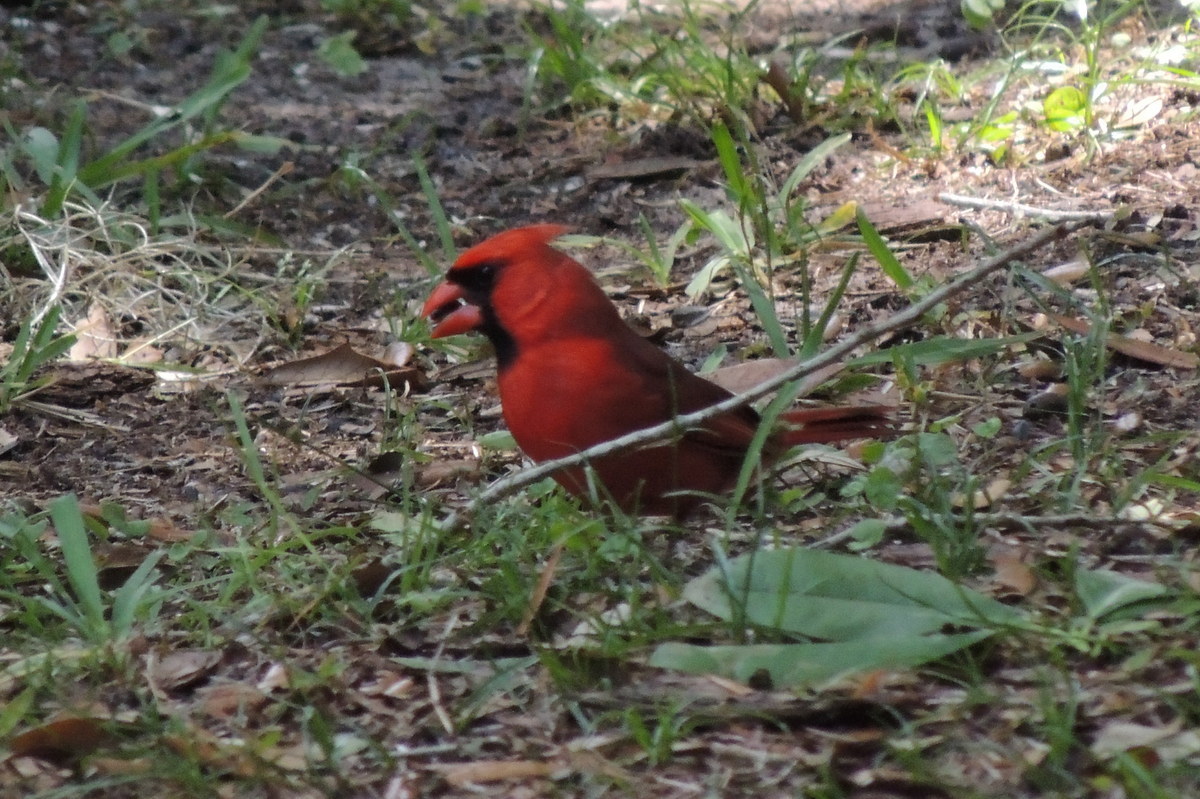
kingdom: Animalia
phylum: Chordata
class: Aves
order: Passeriformes
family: Cardinalidae
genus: Cardinalis
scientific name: Cardinalis cardinalis
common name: Northern cardinal
